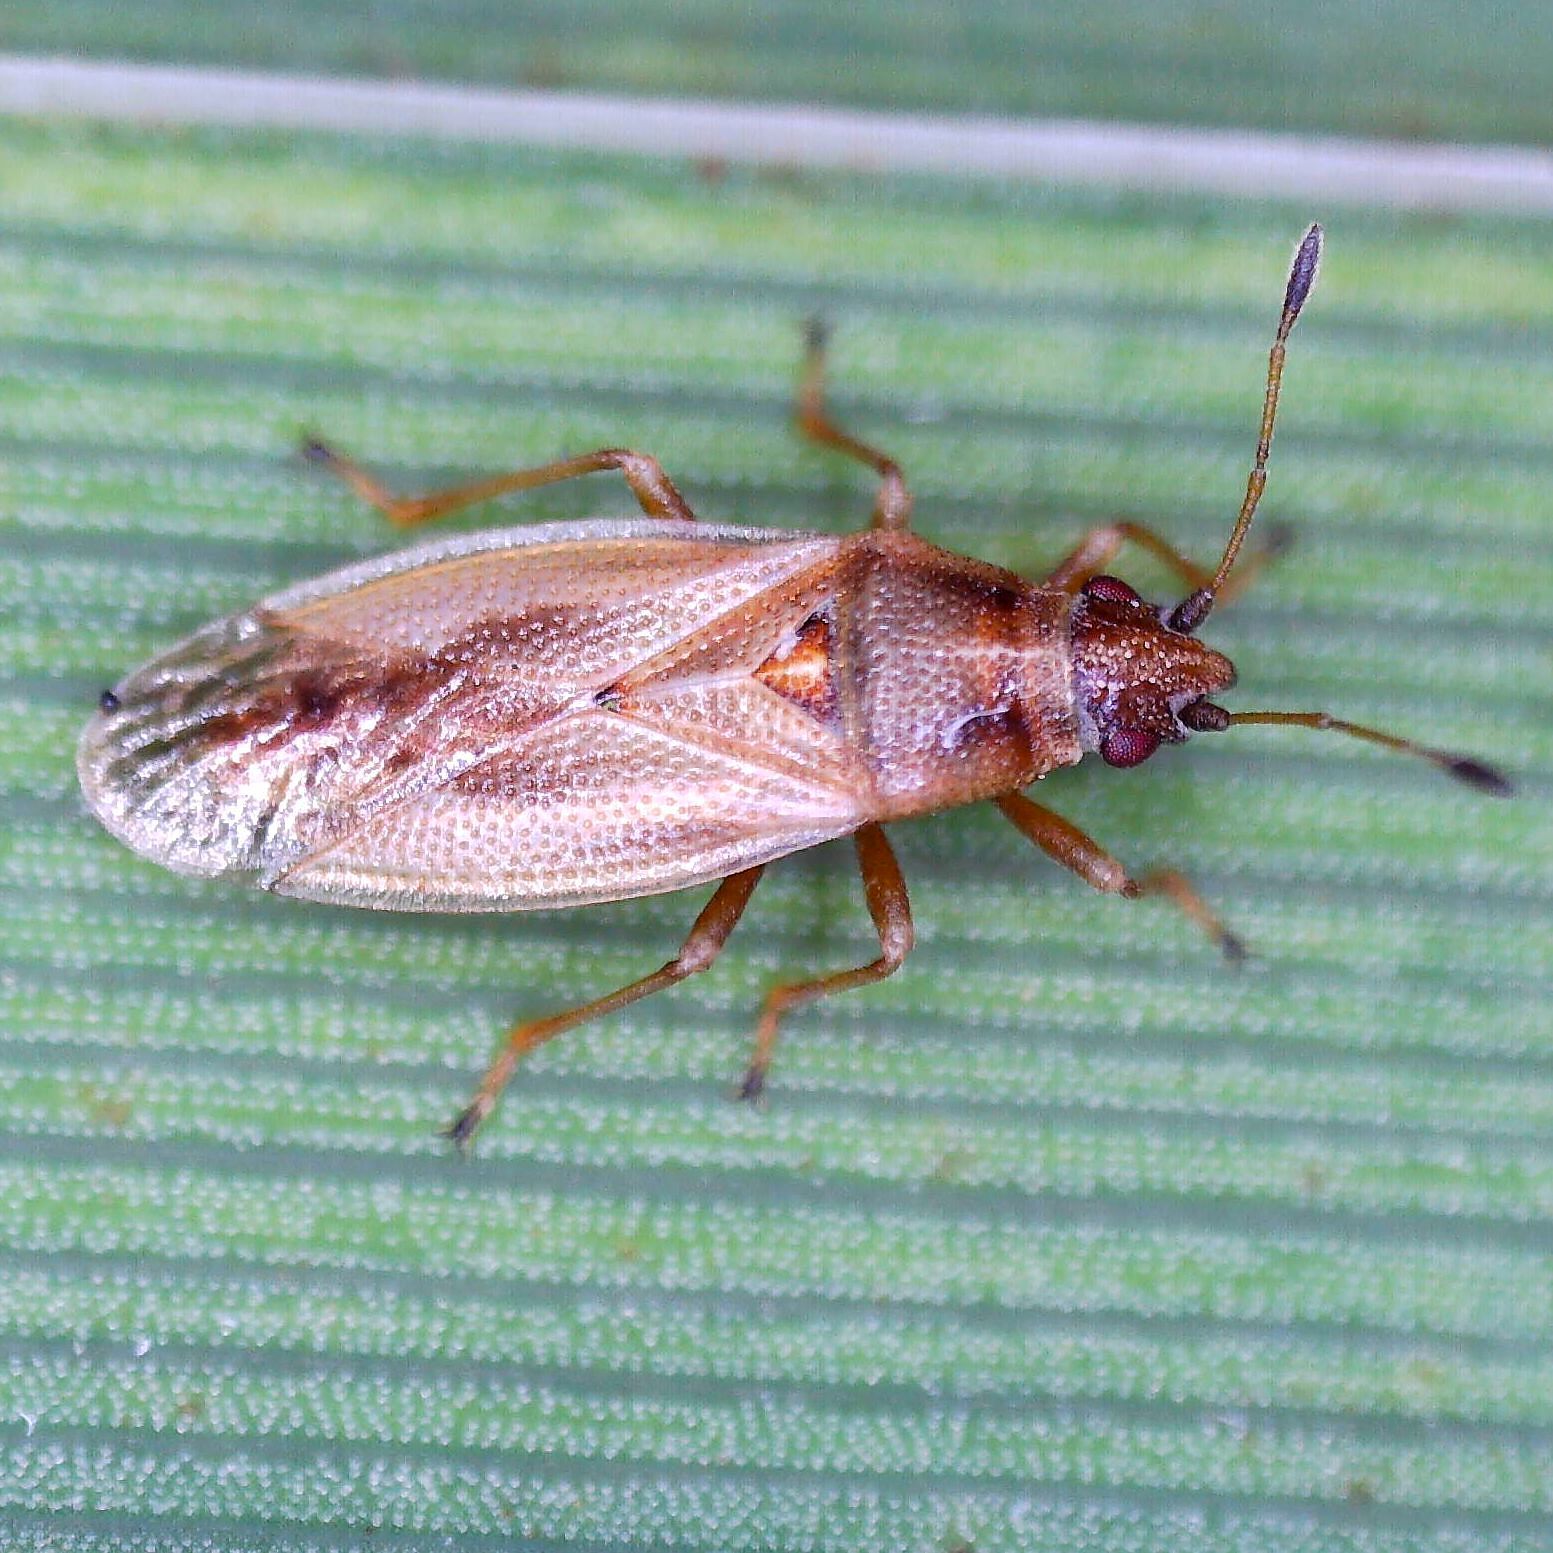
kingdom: Animalia
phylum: Arthropoda
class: Insecta
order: Hemiptera
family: Cymidae
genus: Cymus
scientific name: Cymus glandicolor
